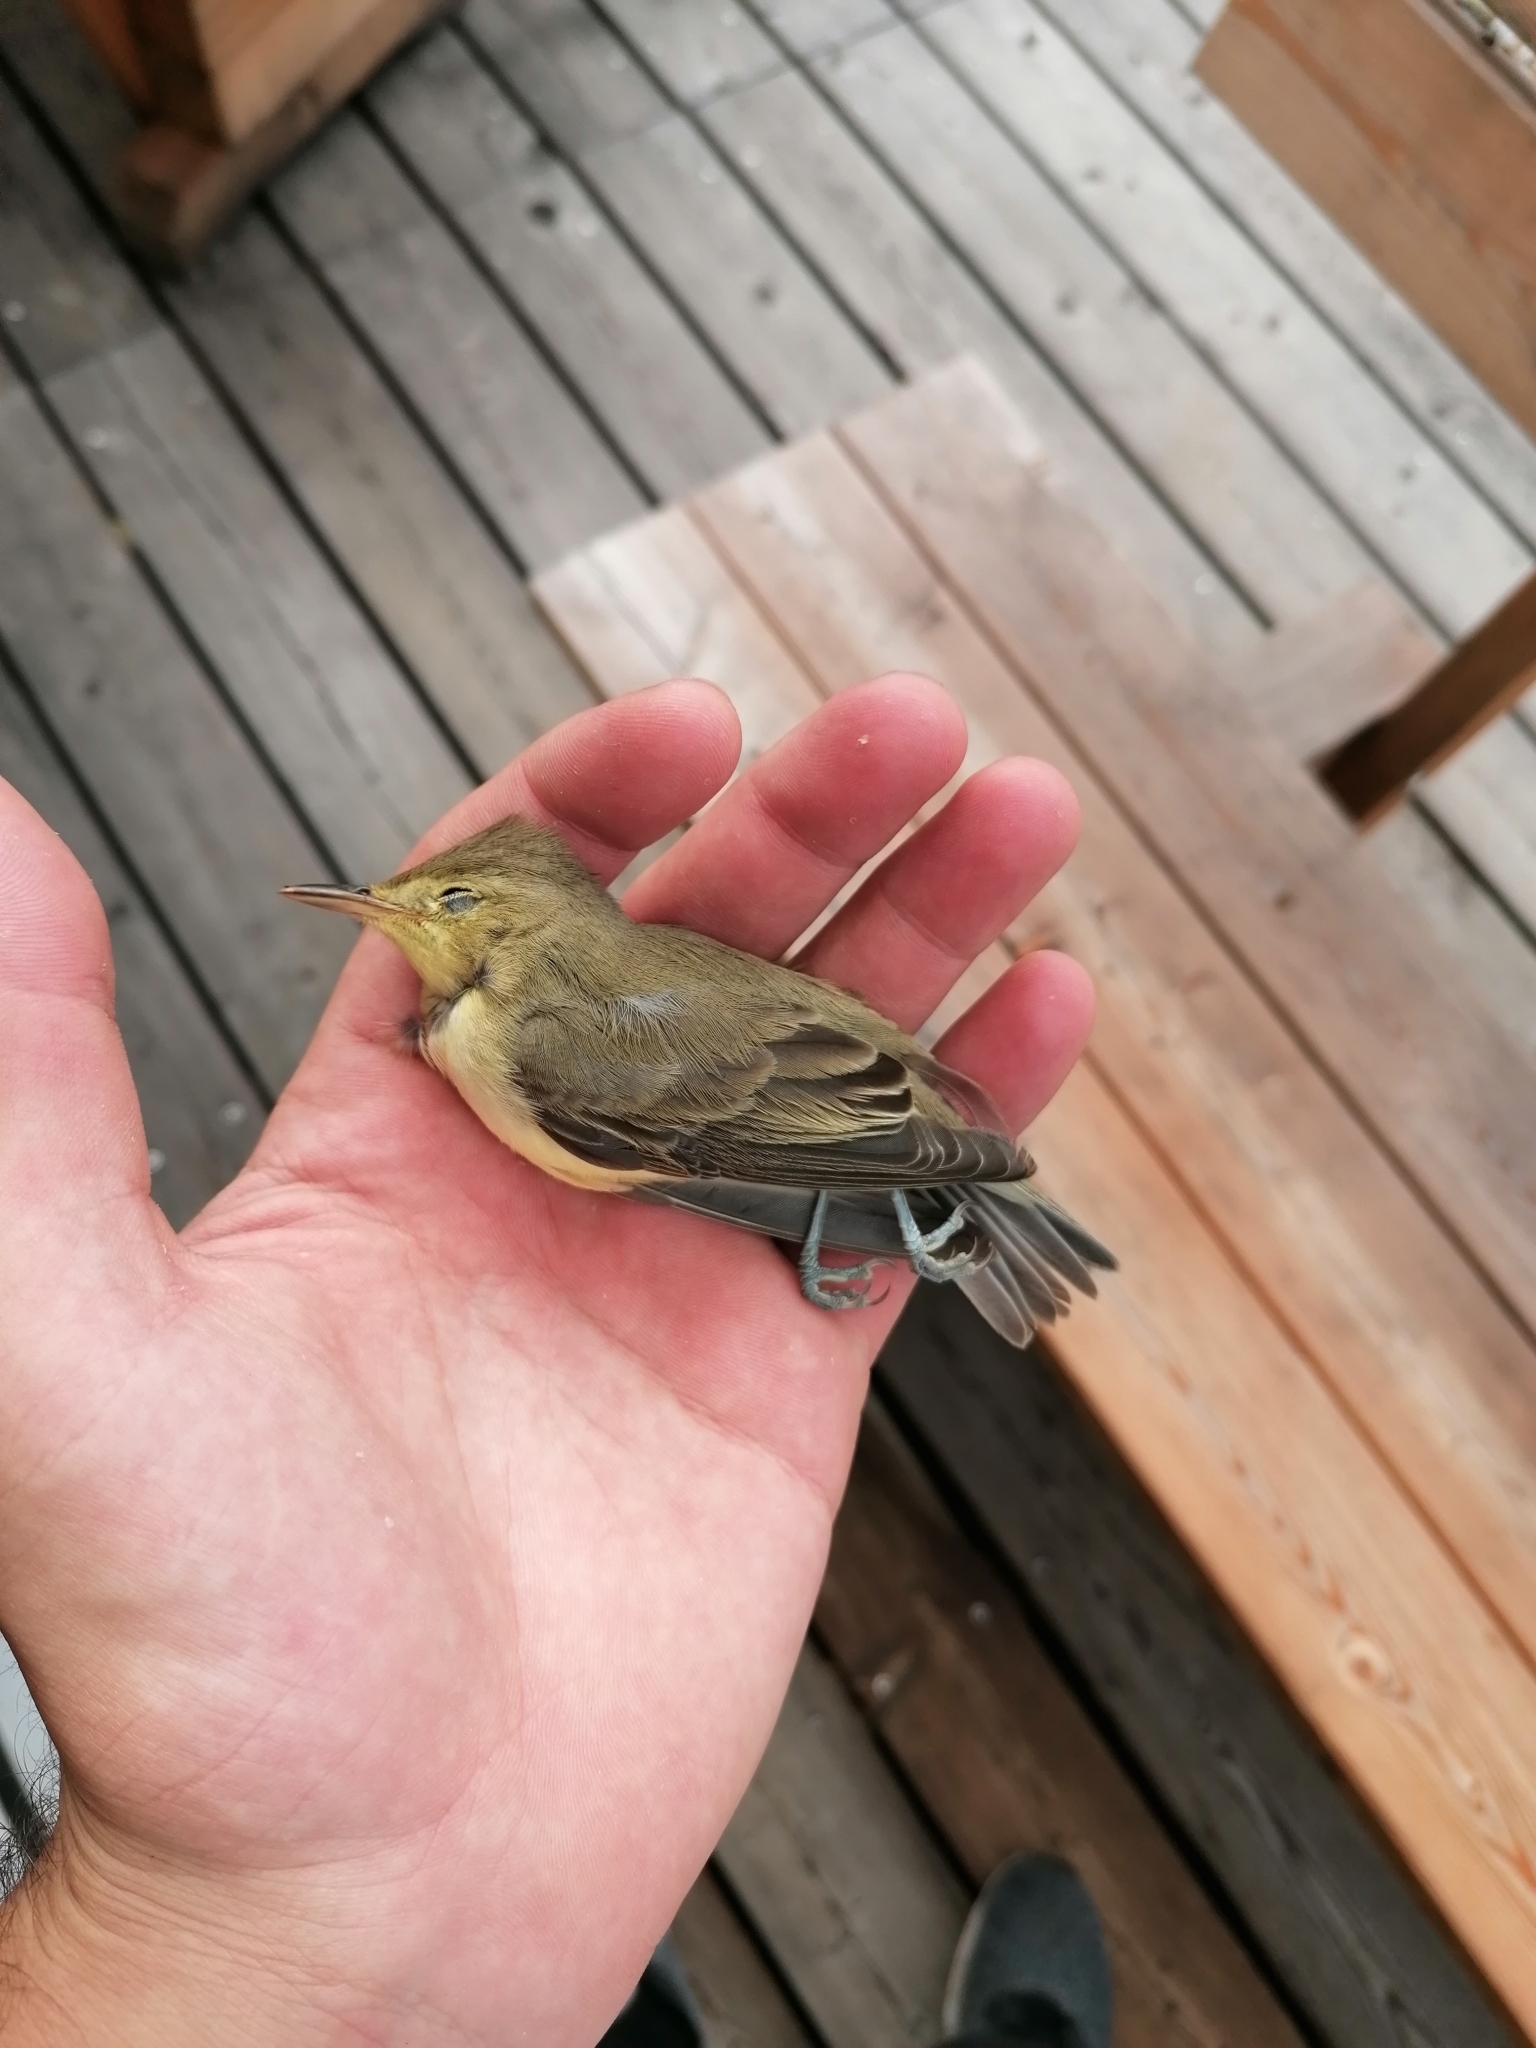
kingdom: Animalia
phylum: Chordata
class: Aves
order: Passeriformes
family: Acrocephalidae
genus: Hippolais
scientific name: Hippolais icterina
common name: Icterine warbler
